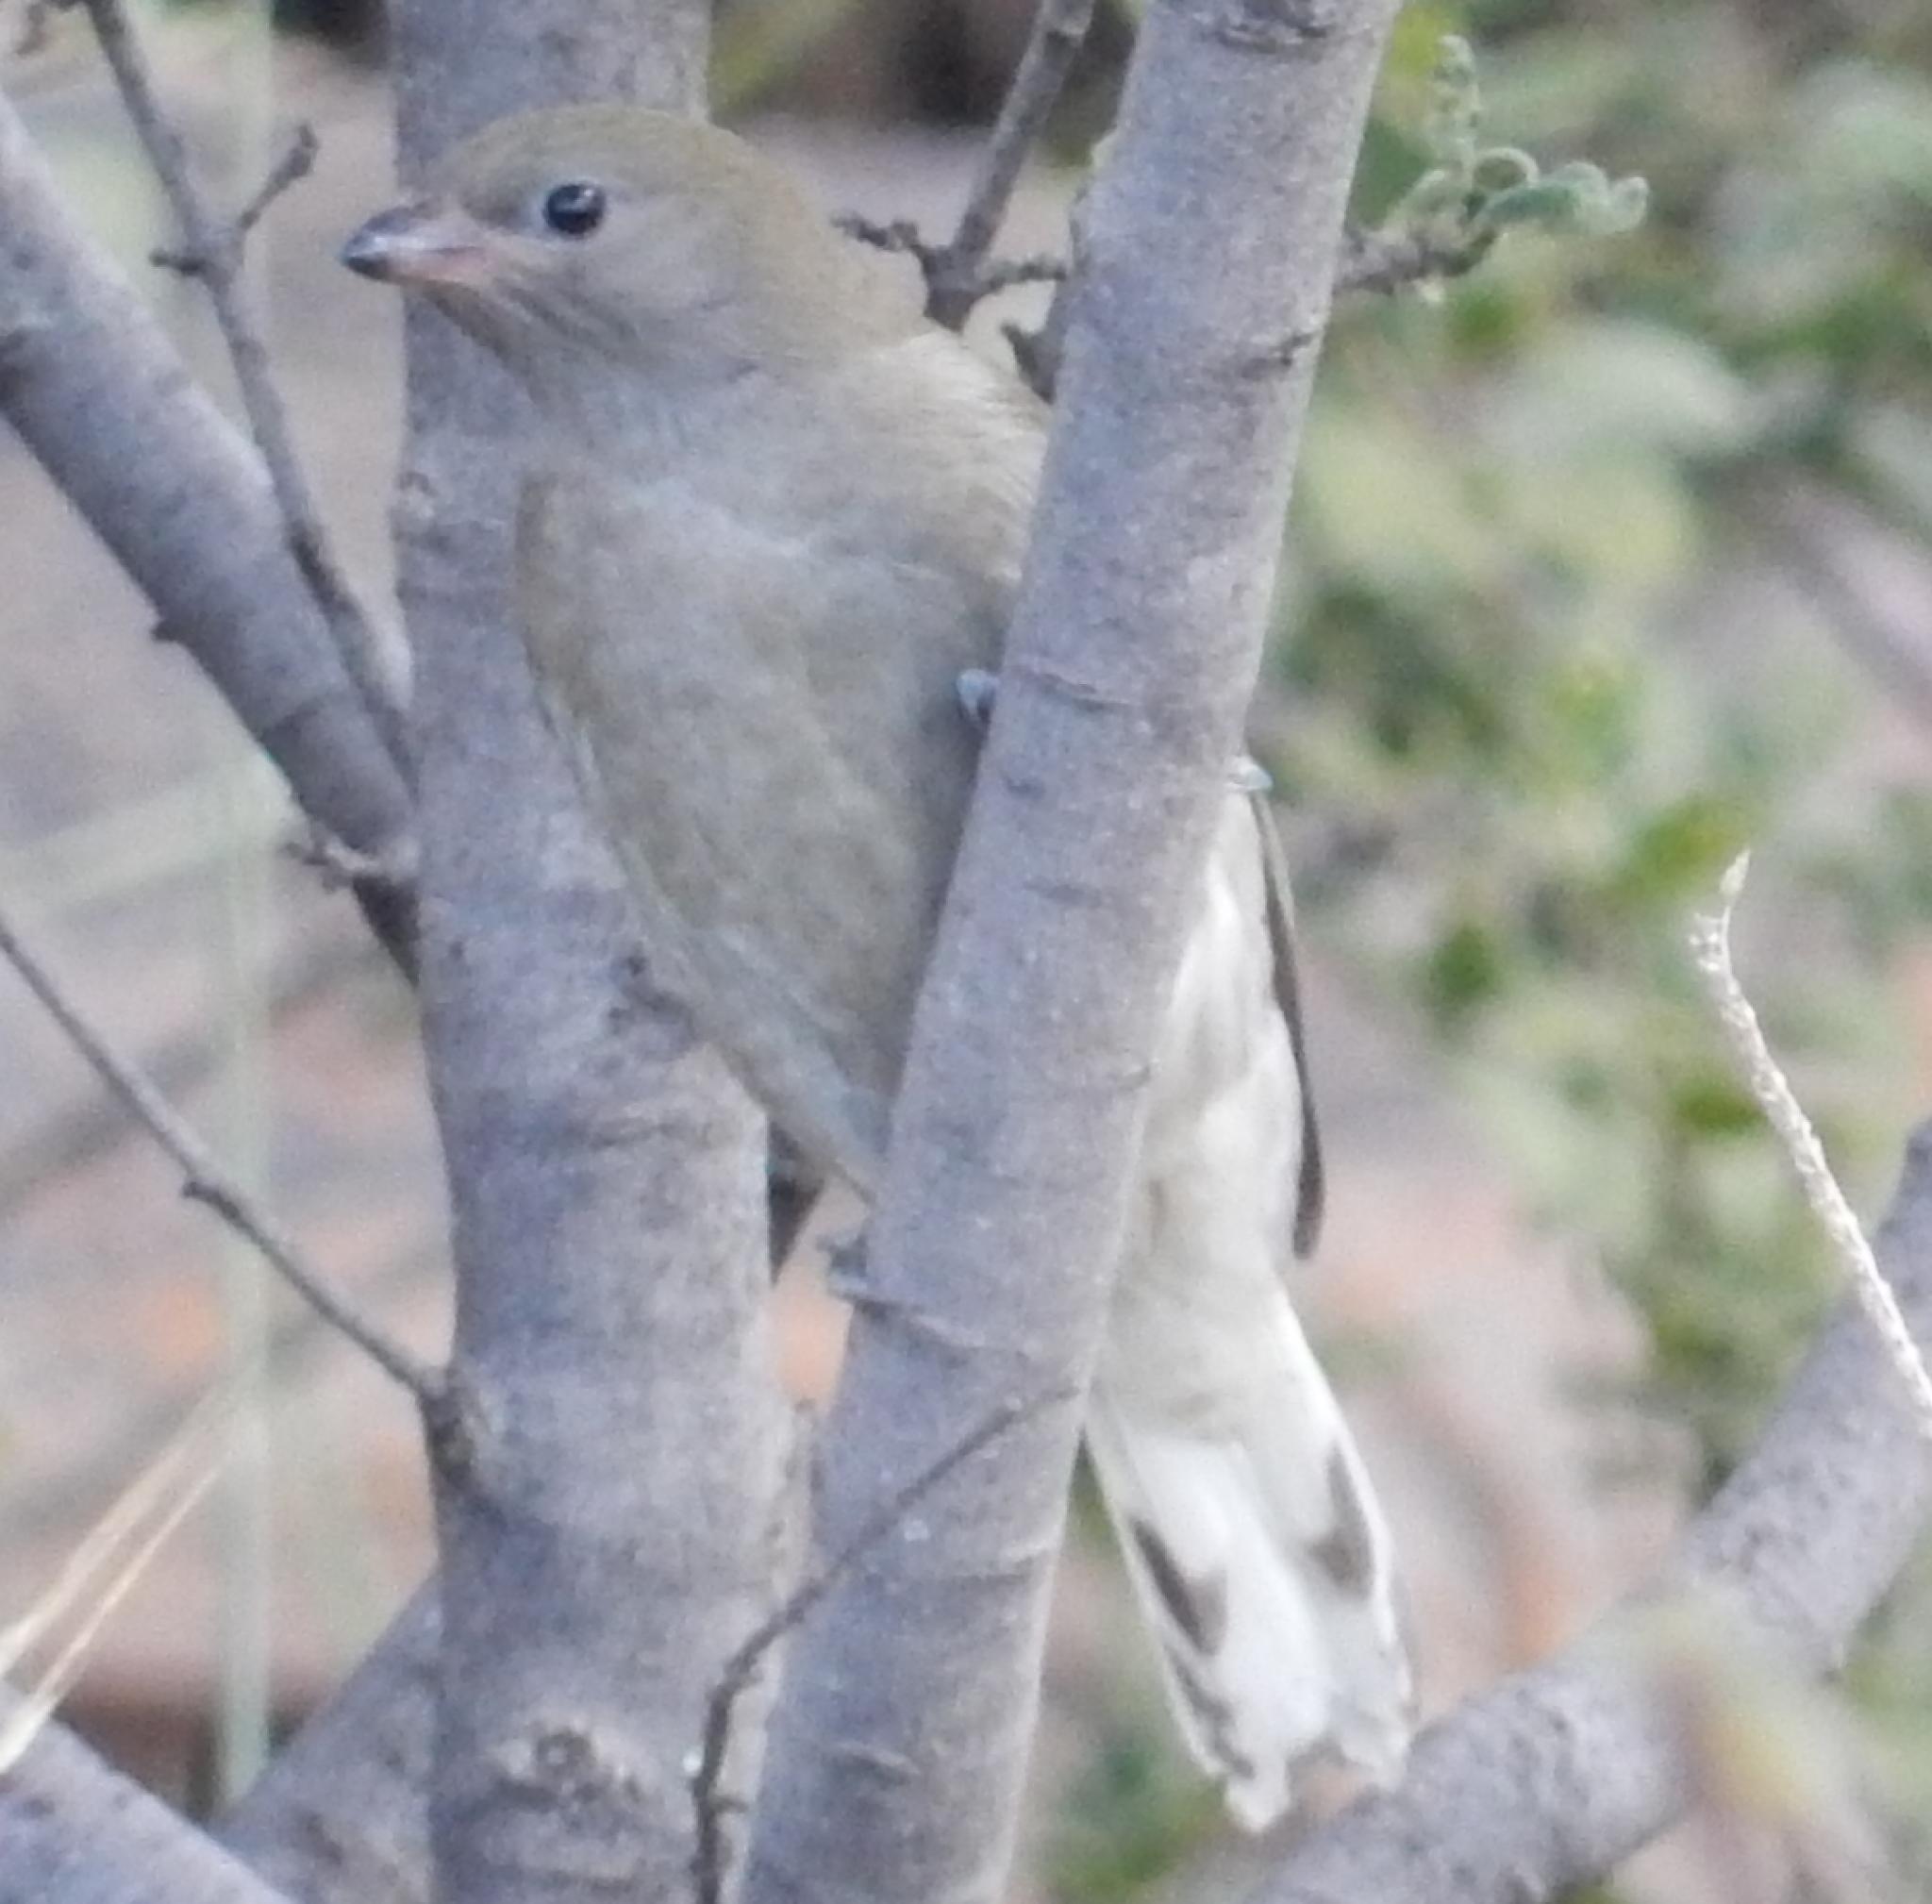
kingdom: Animalia
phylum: Chordata
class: Aves
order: Piciformes
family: Indicatoridae
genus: Indicator
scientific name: Indicator minor
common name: Lesser honeyguide
